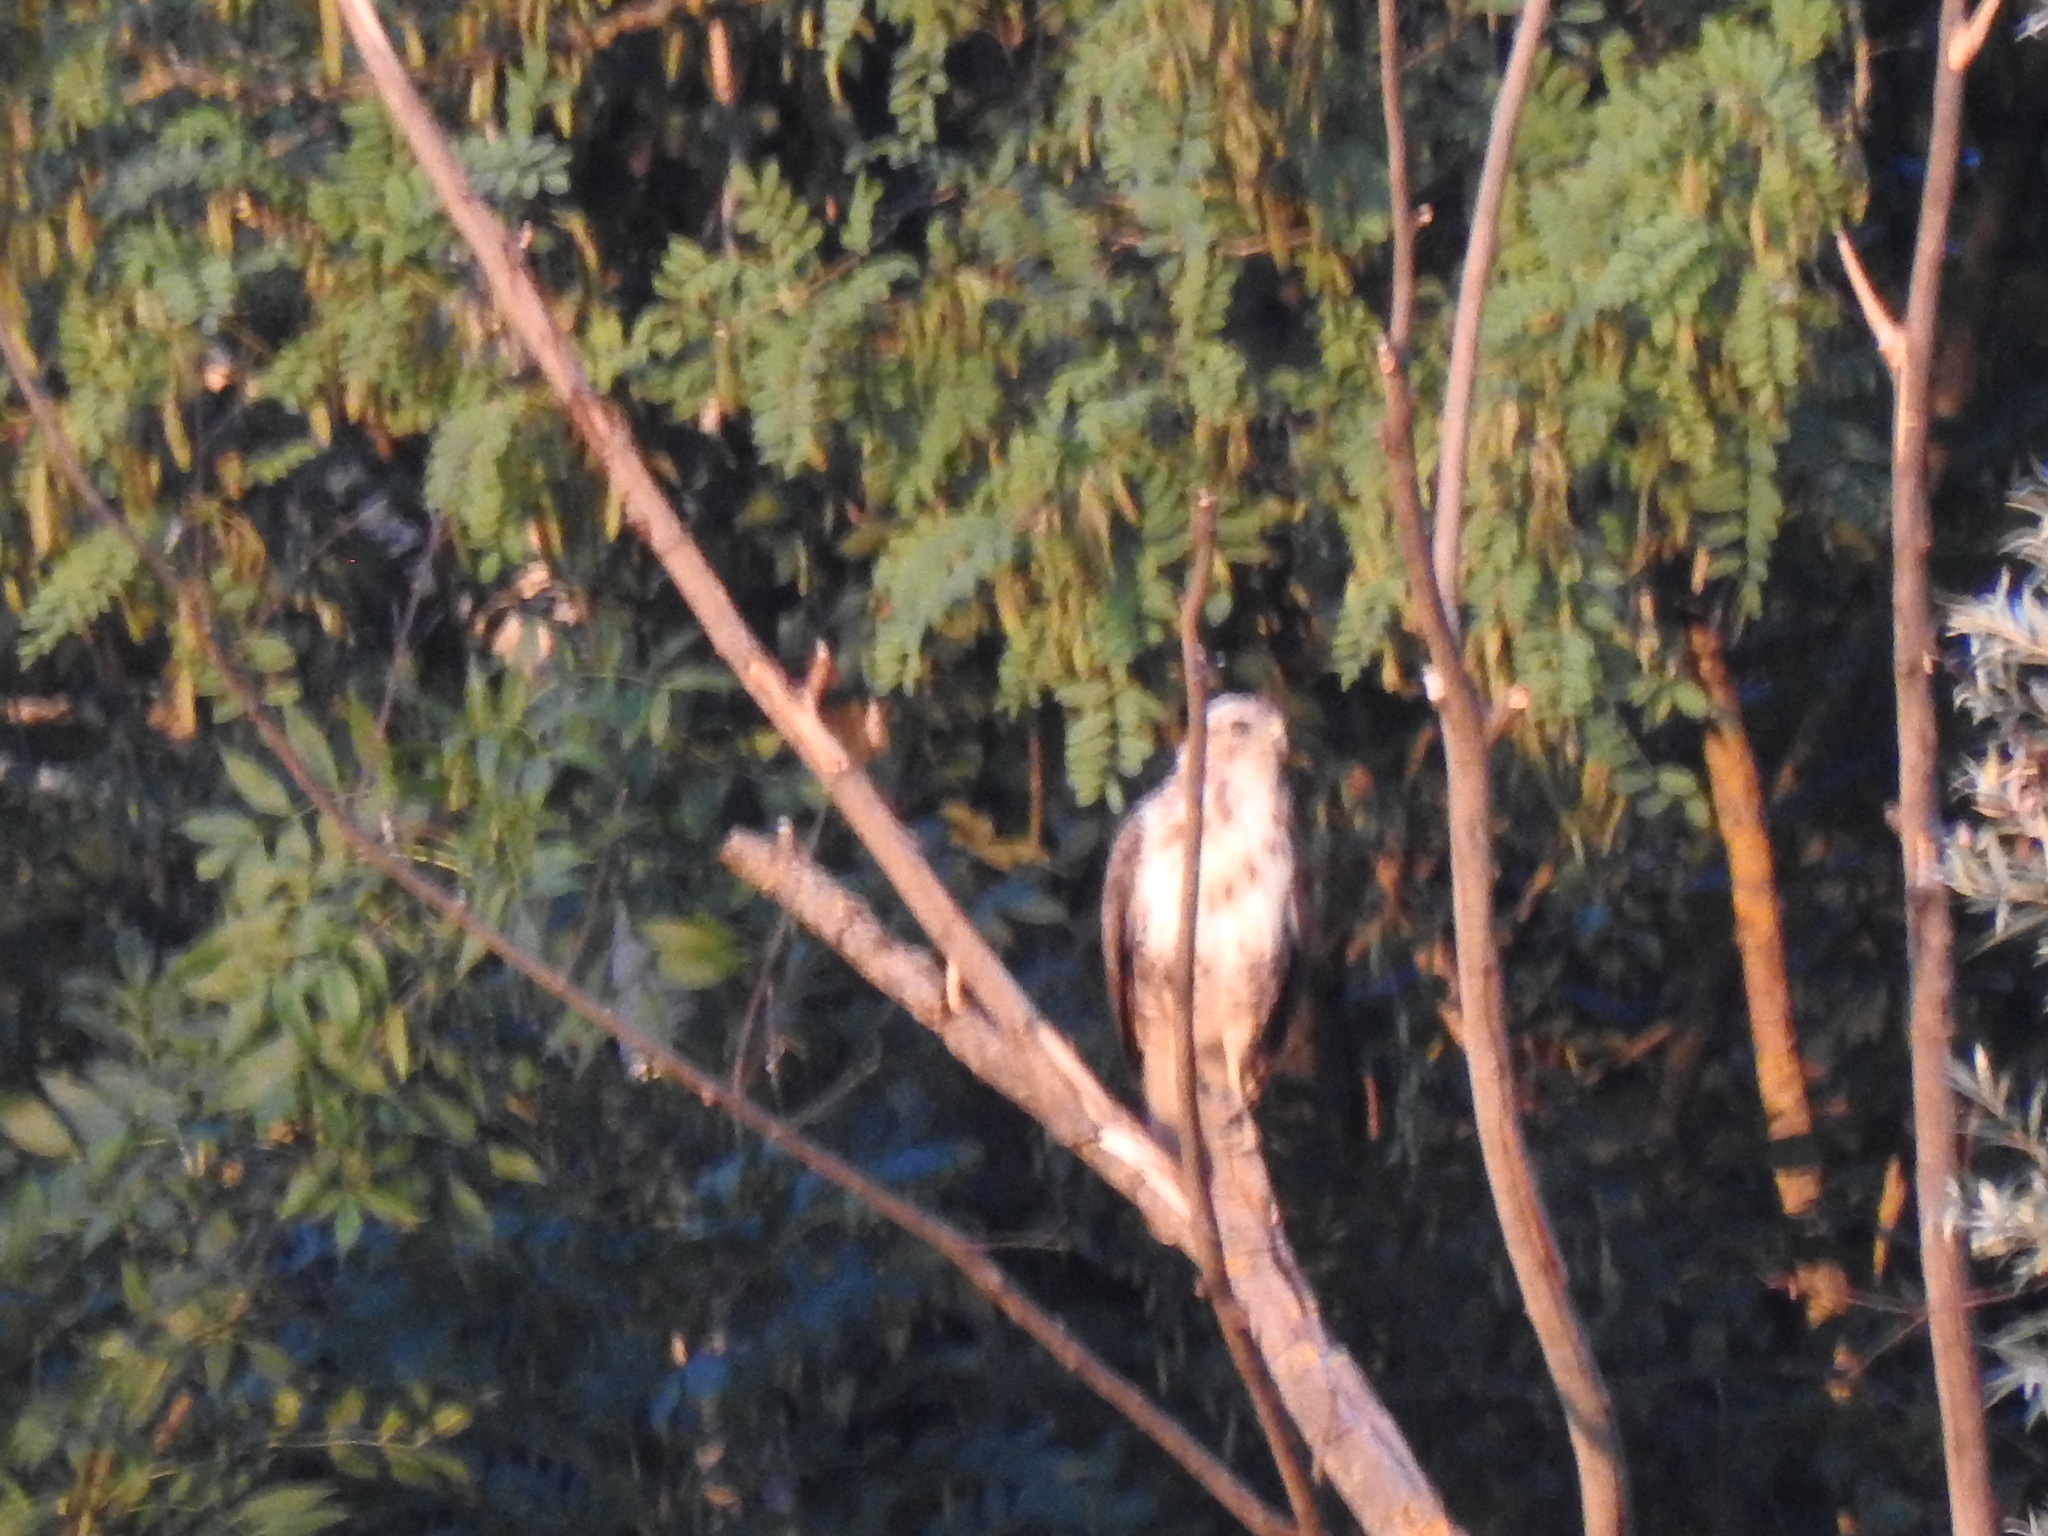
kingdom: Animalia
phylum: Chordata
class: Aves
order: Accipitriformes
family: Accipitridae
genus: Buteo
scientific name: Buteo buteo
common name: Common buzzard
